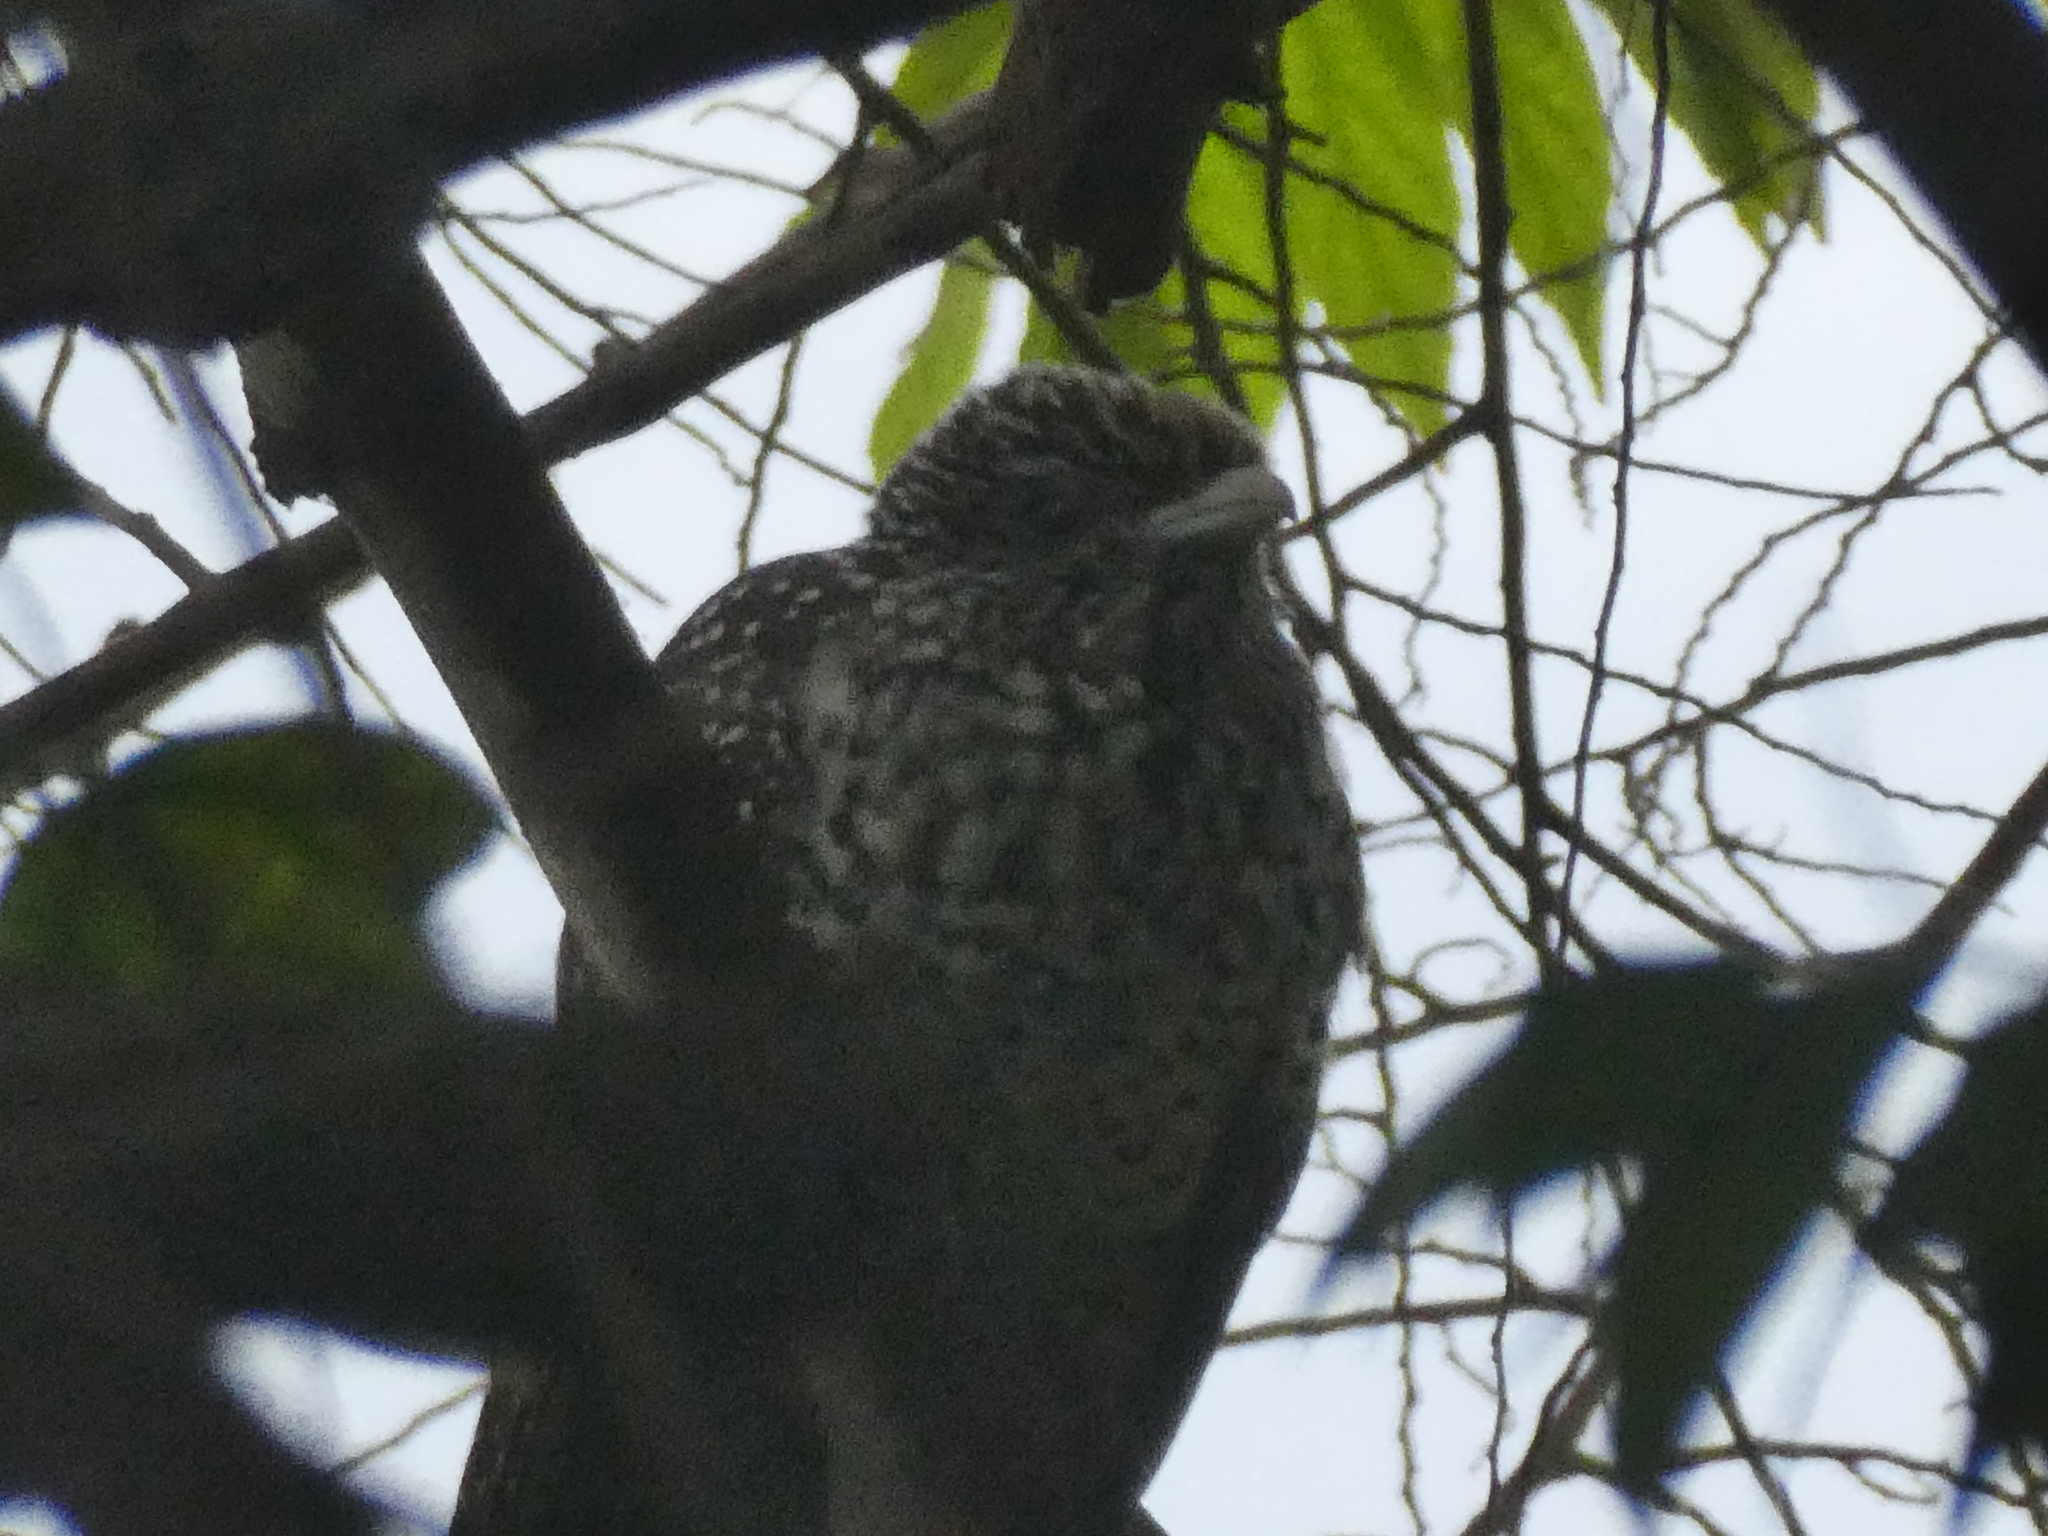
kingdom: Animalia
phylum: Chordata
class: Aves
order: Cuculiformes
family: Cuculidae
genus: Eudynamys
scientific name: Eudynamys scolopaceus
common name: Asian koel
